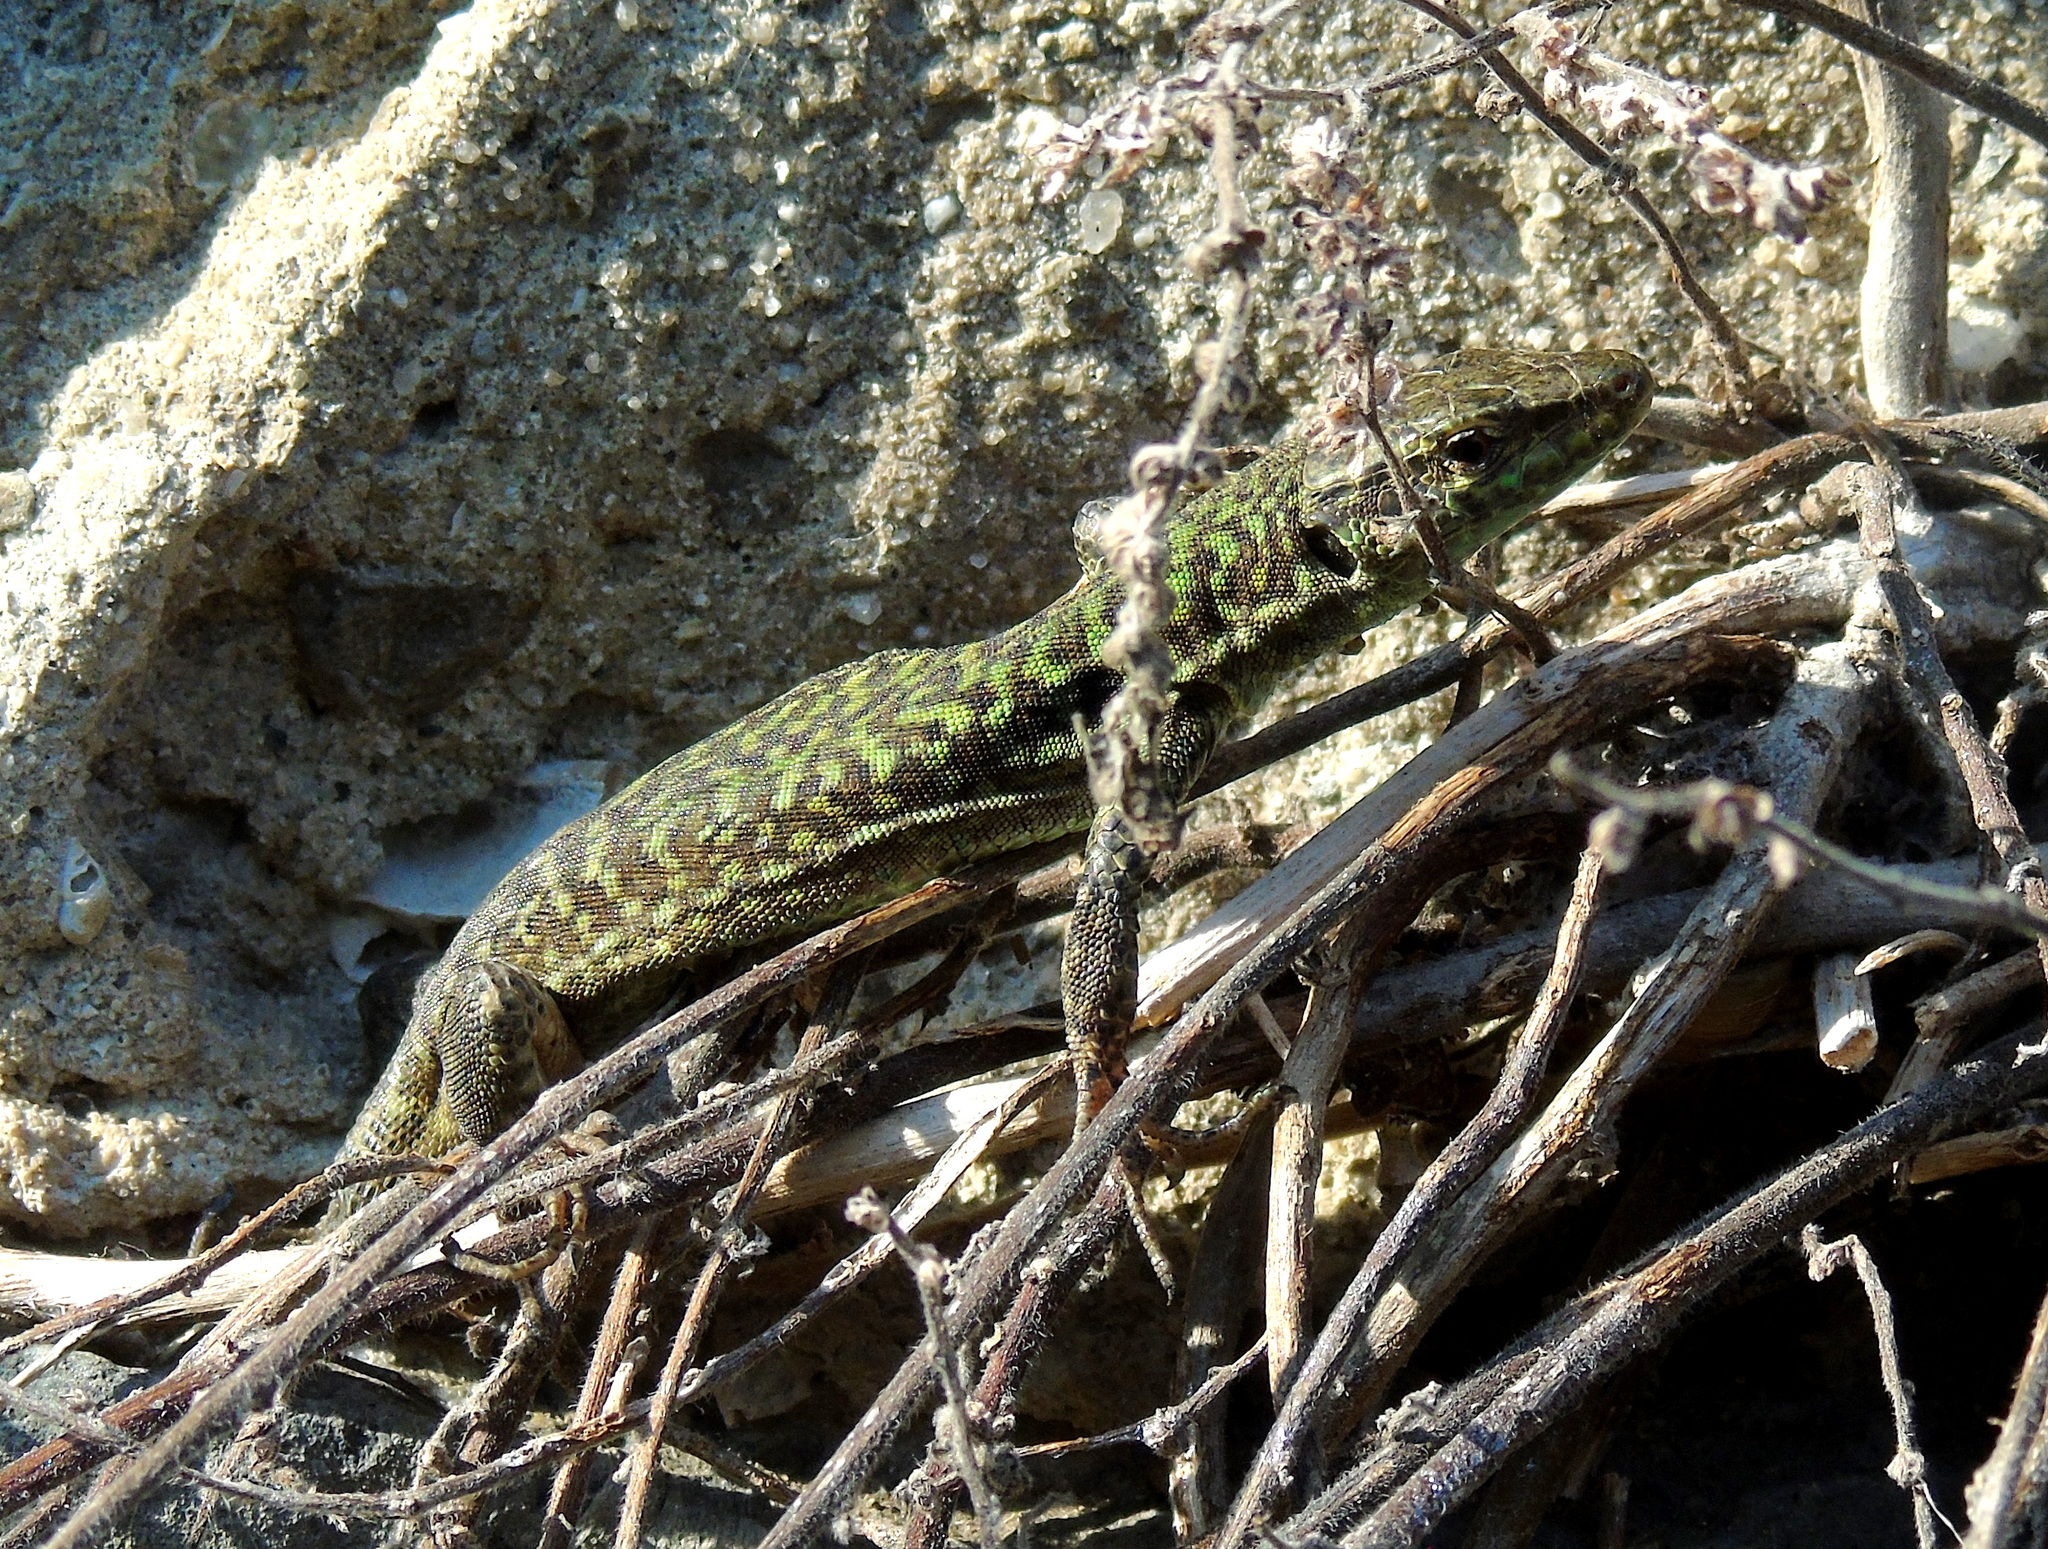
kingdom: Animalia
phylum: Chordata
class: Squamata
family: Lacertidae
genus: Podarcis
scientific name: Podarcis siculus
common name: Italian wall lizard
